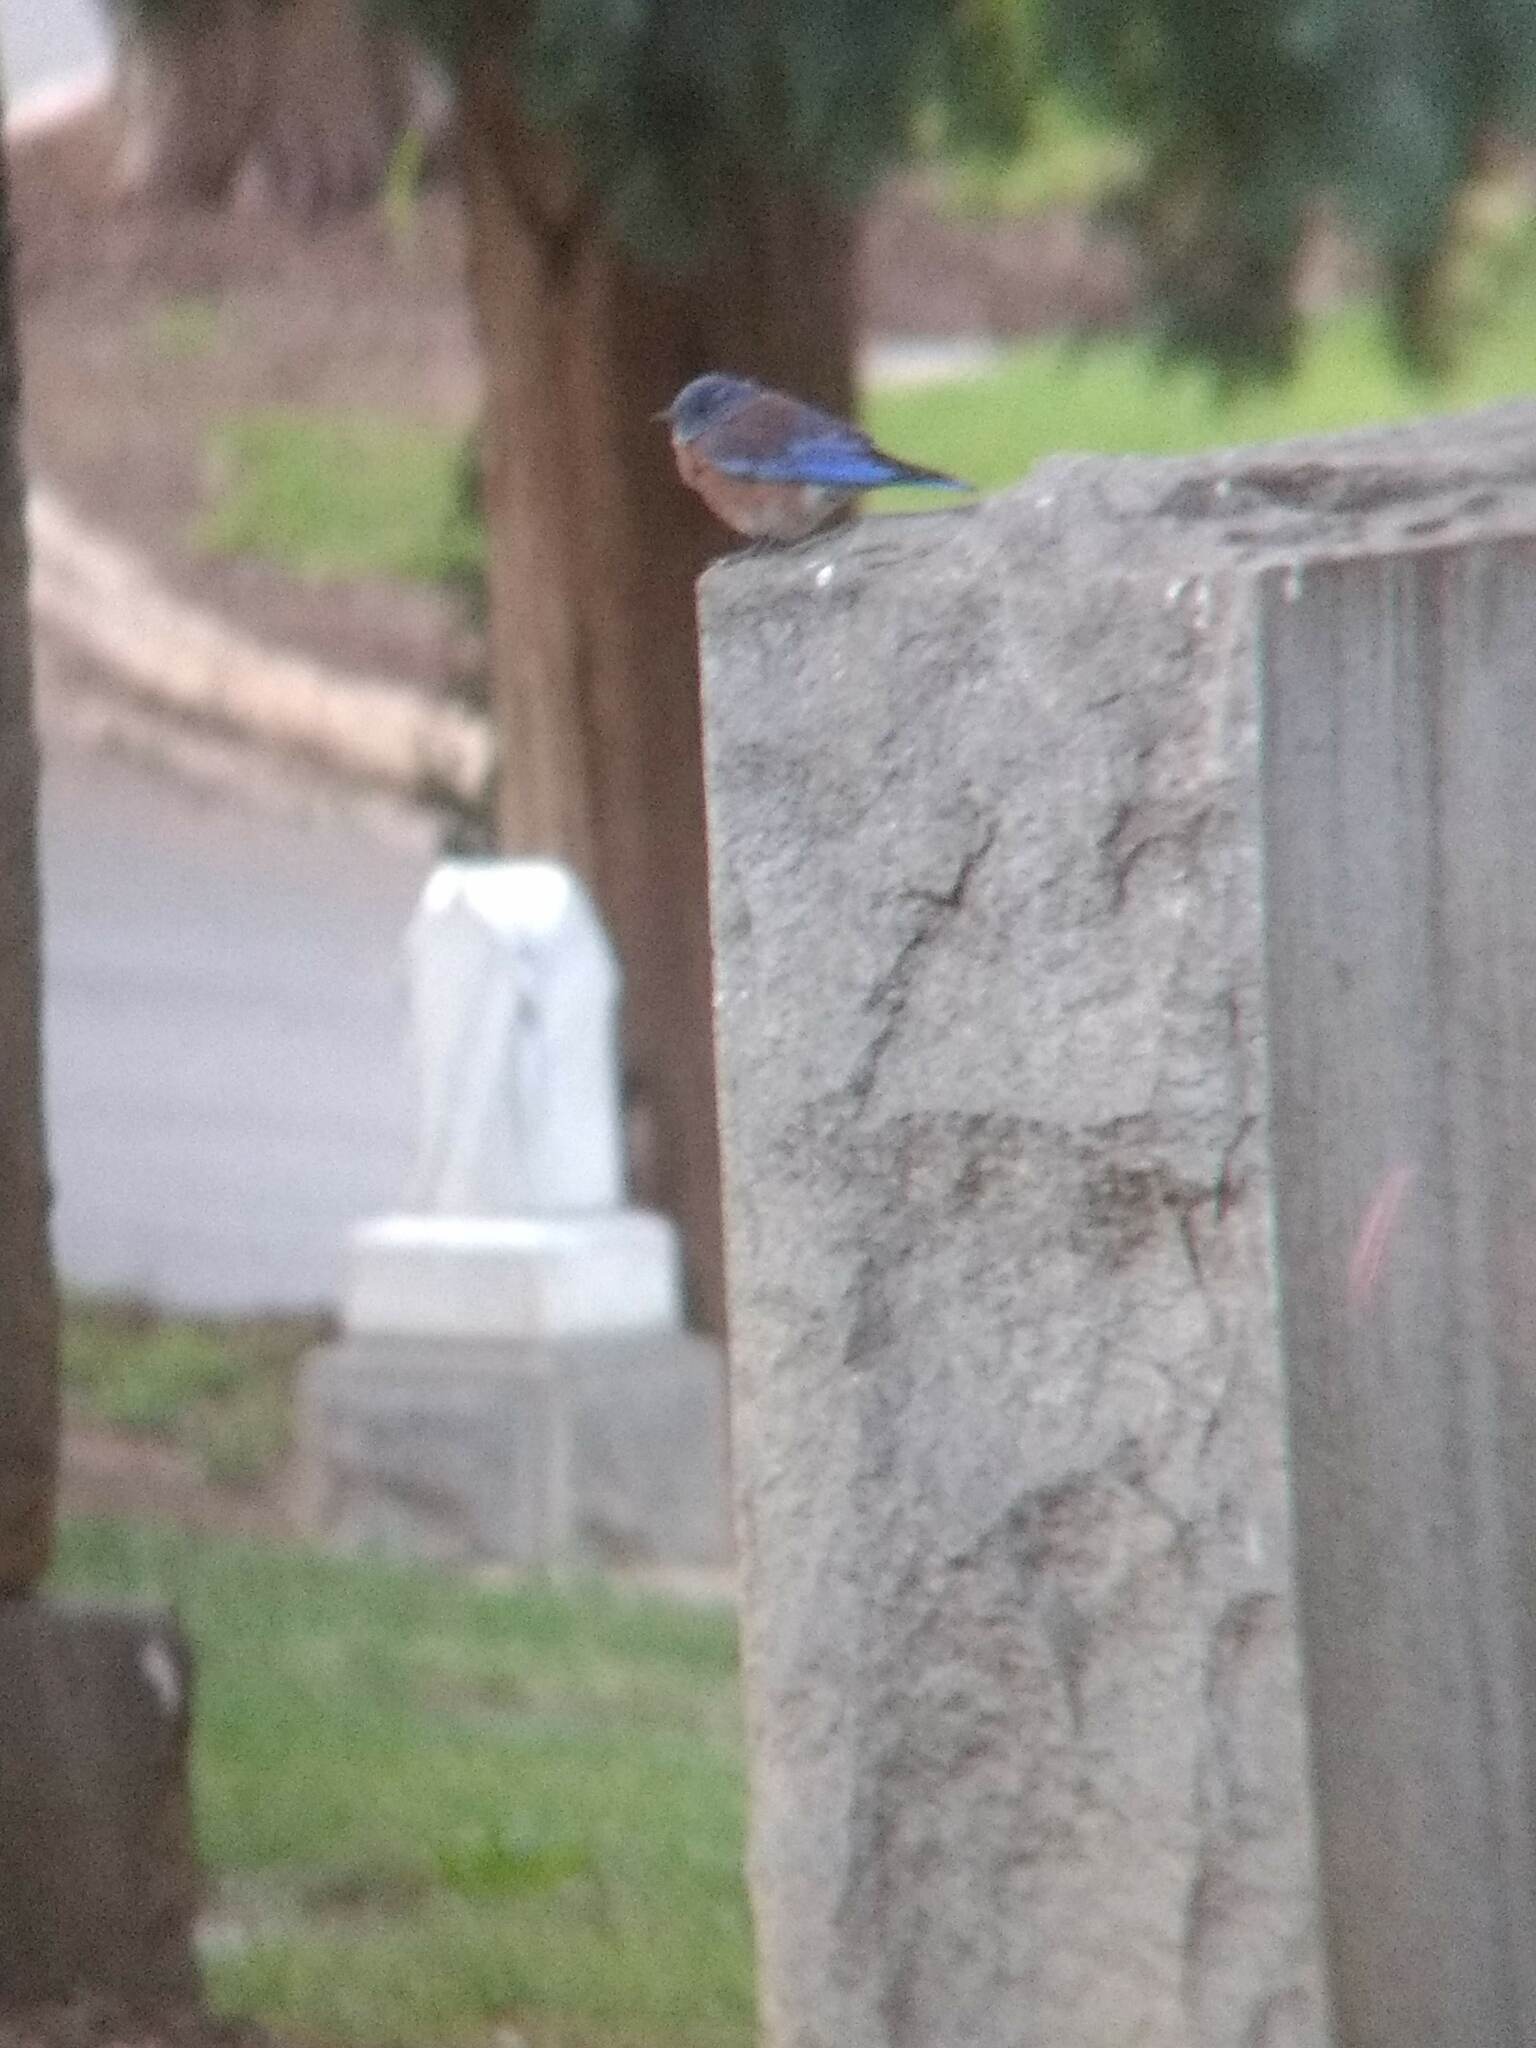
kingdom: Animalia
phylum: Chordata
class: Aves
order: Passeriformes
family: Turdidae
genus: Sialia
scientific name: Sialia mexicana
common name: Western bluebird
